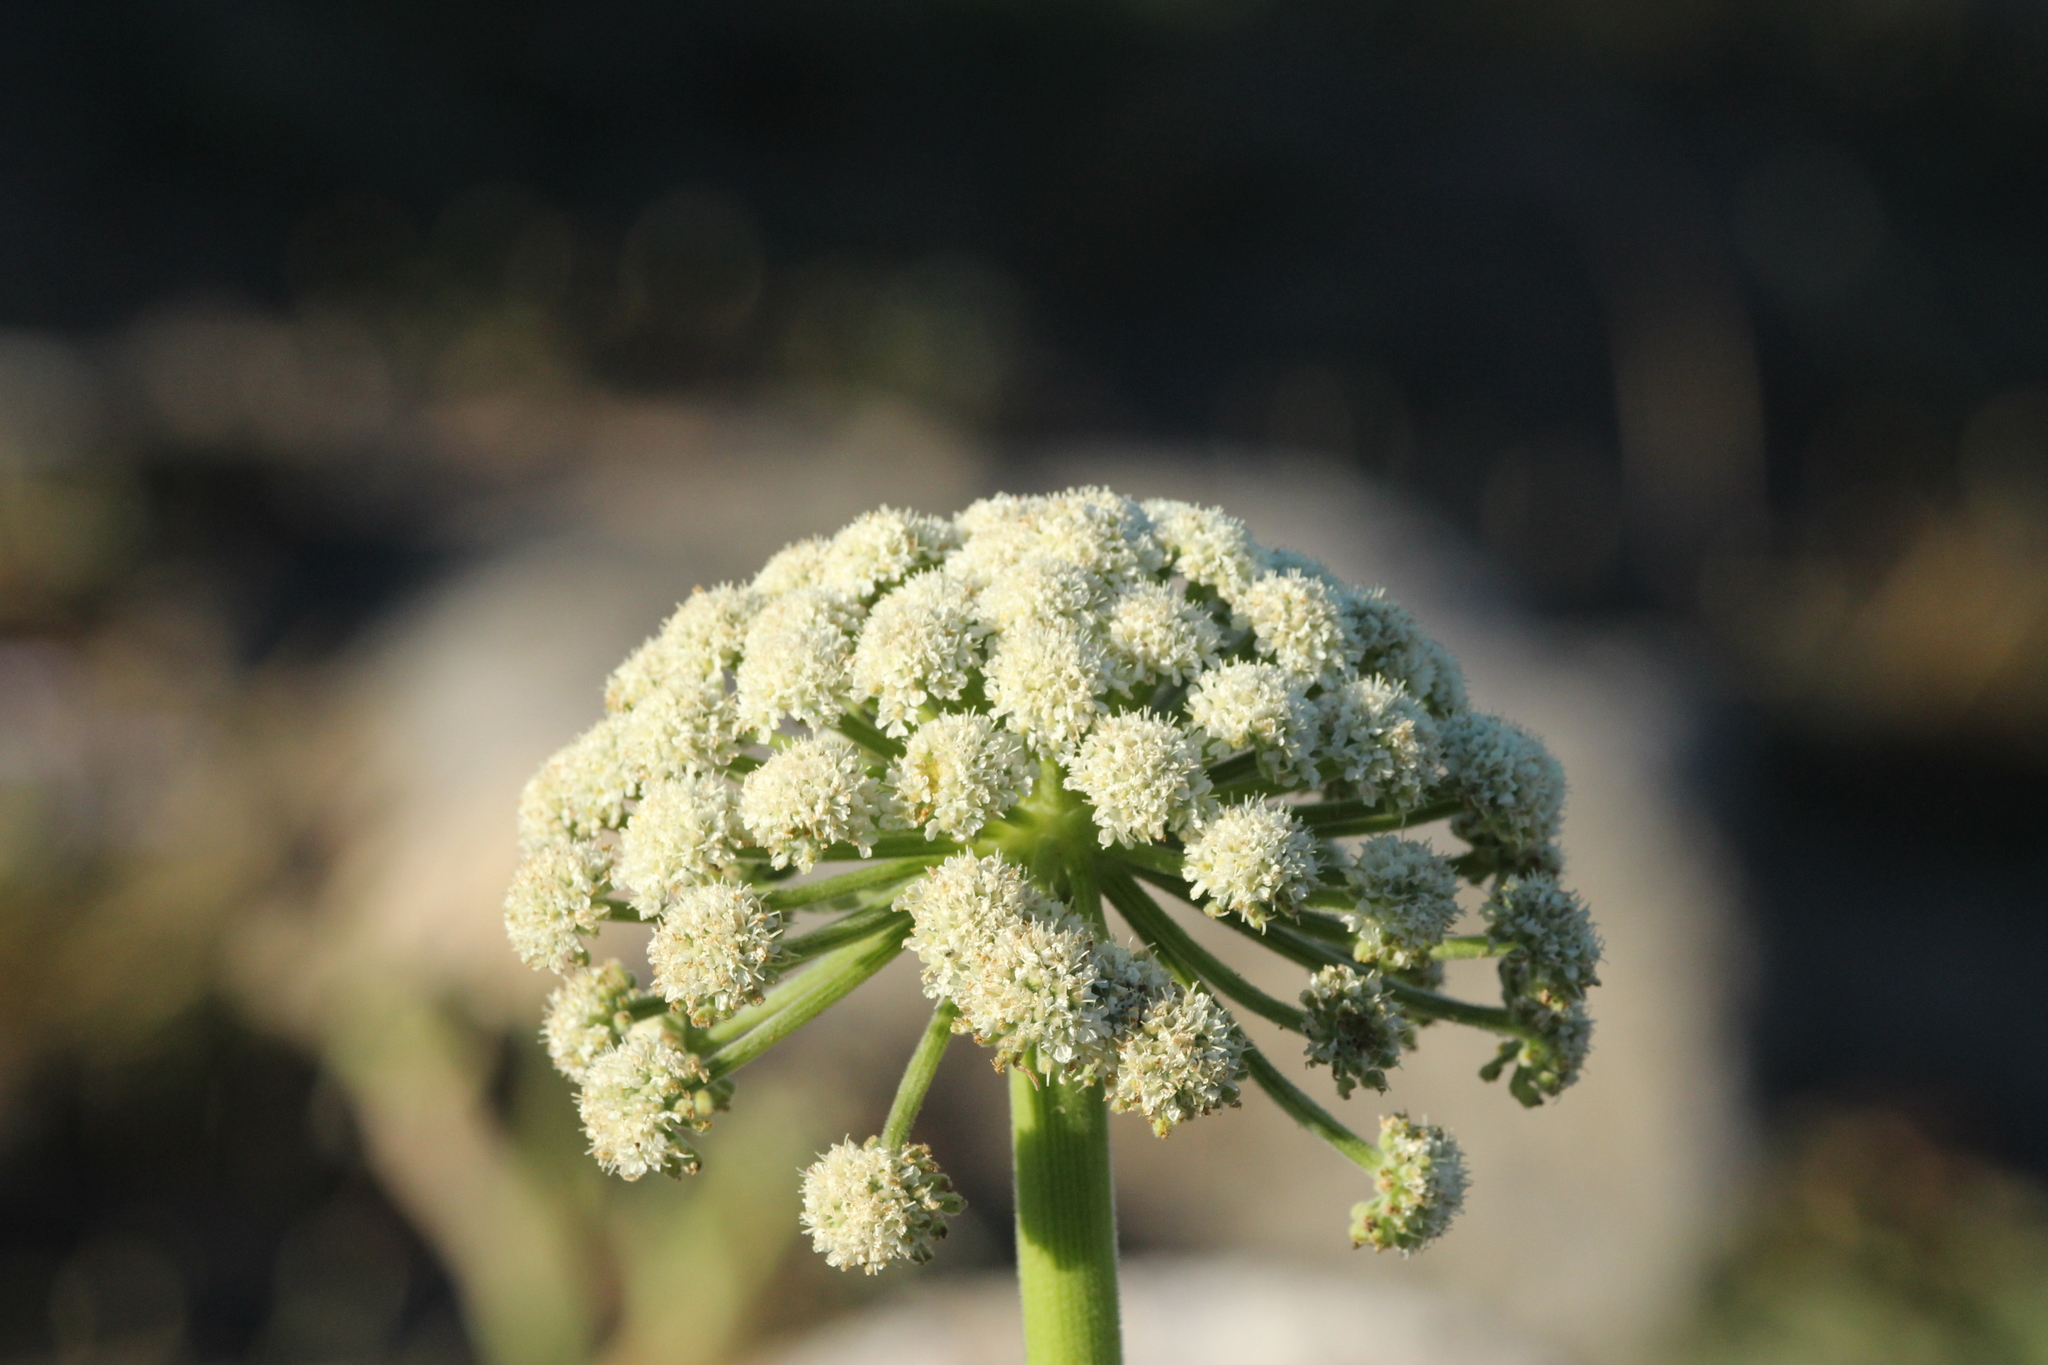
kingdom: Plantae
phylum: Tracheophyta
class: Magnoliopsida
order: Apiales
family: Apiaceae
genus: Angelica
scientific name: Angelica hendersonii
